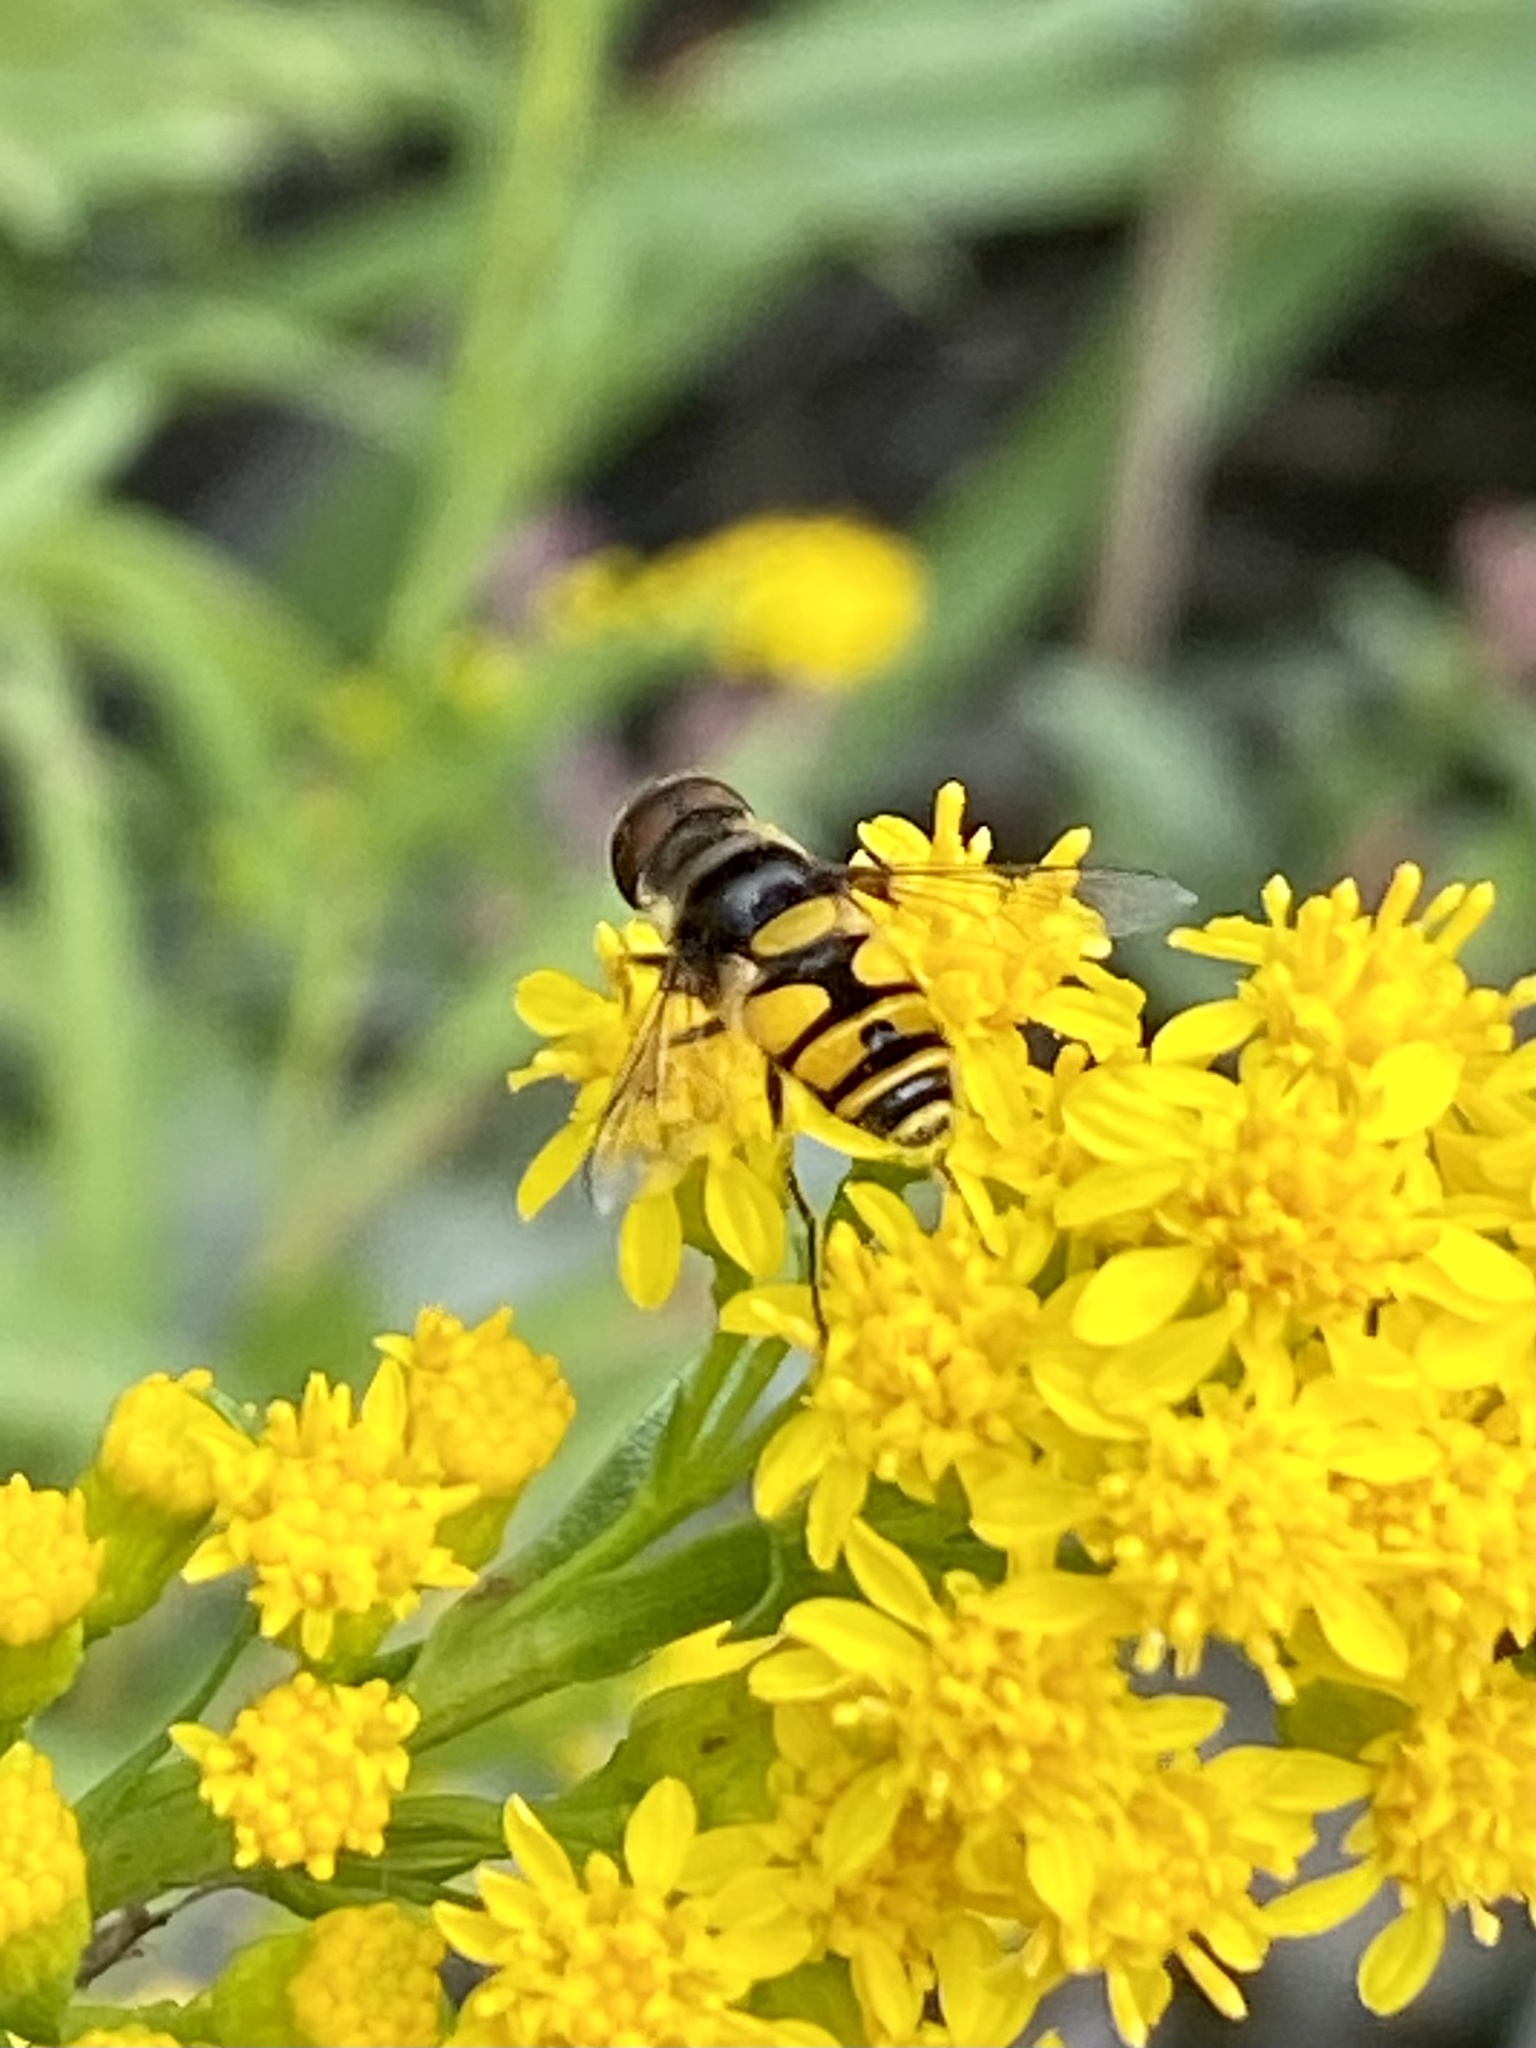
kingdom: Animalia
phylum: Arthropoda
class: Insecta
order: Diptera
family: Syrphidae
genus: Eristalis
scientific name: Eristalis transversa
